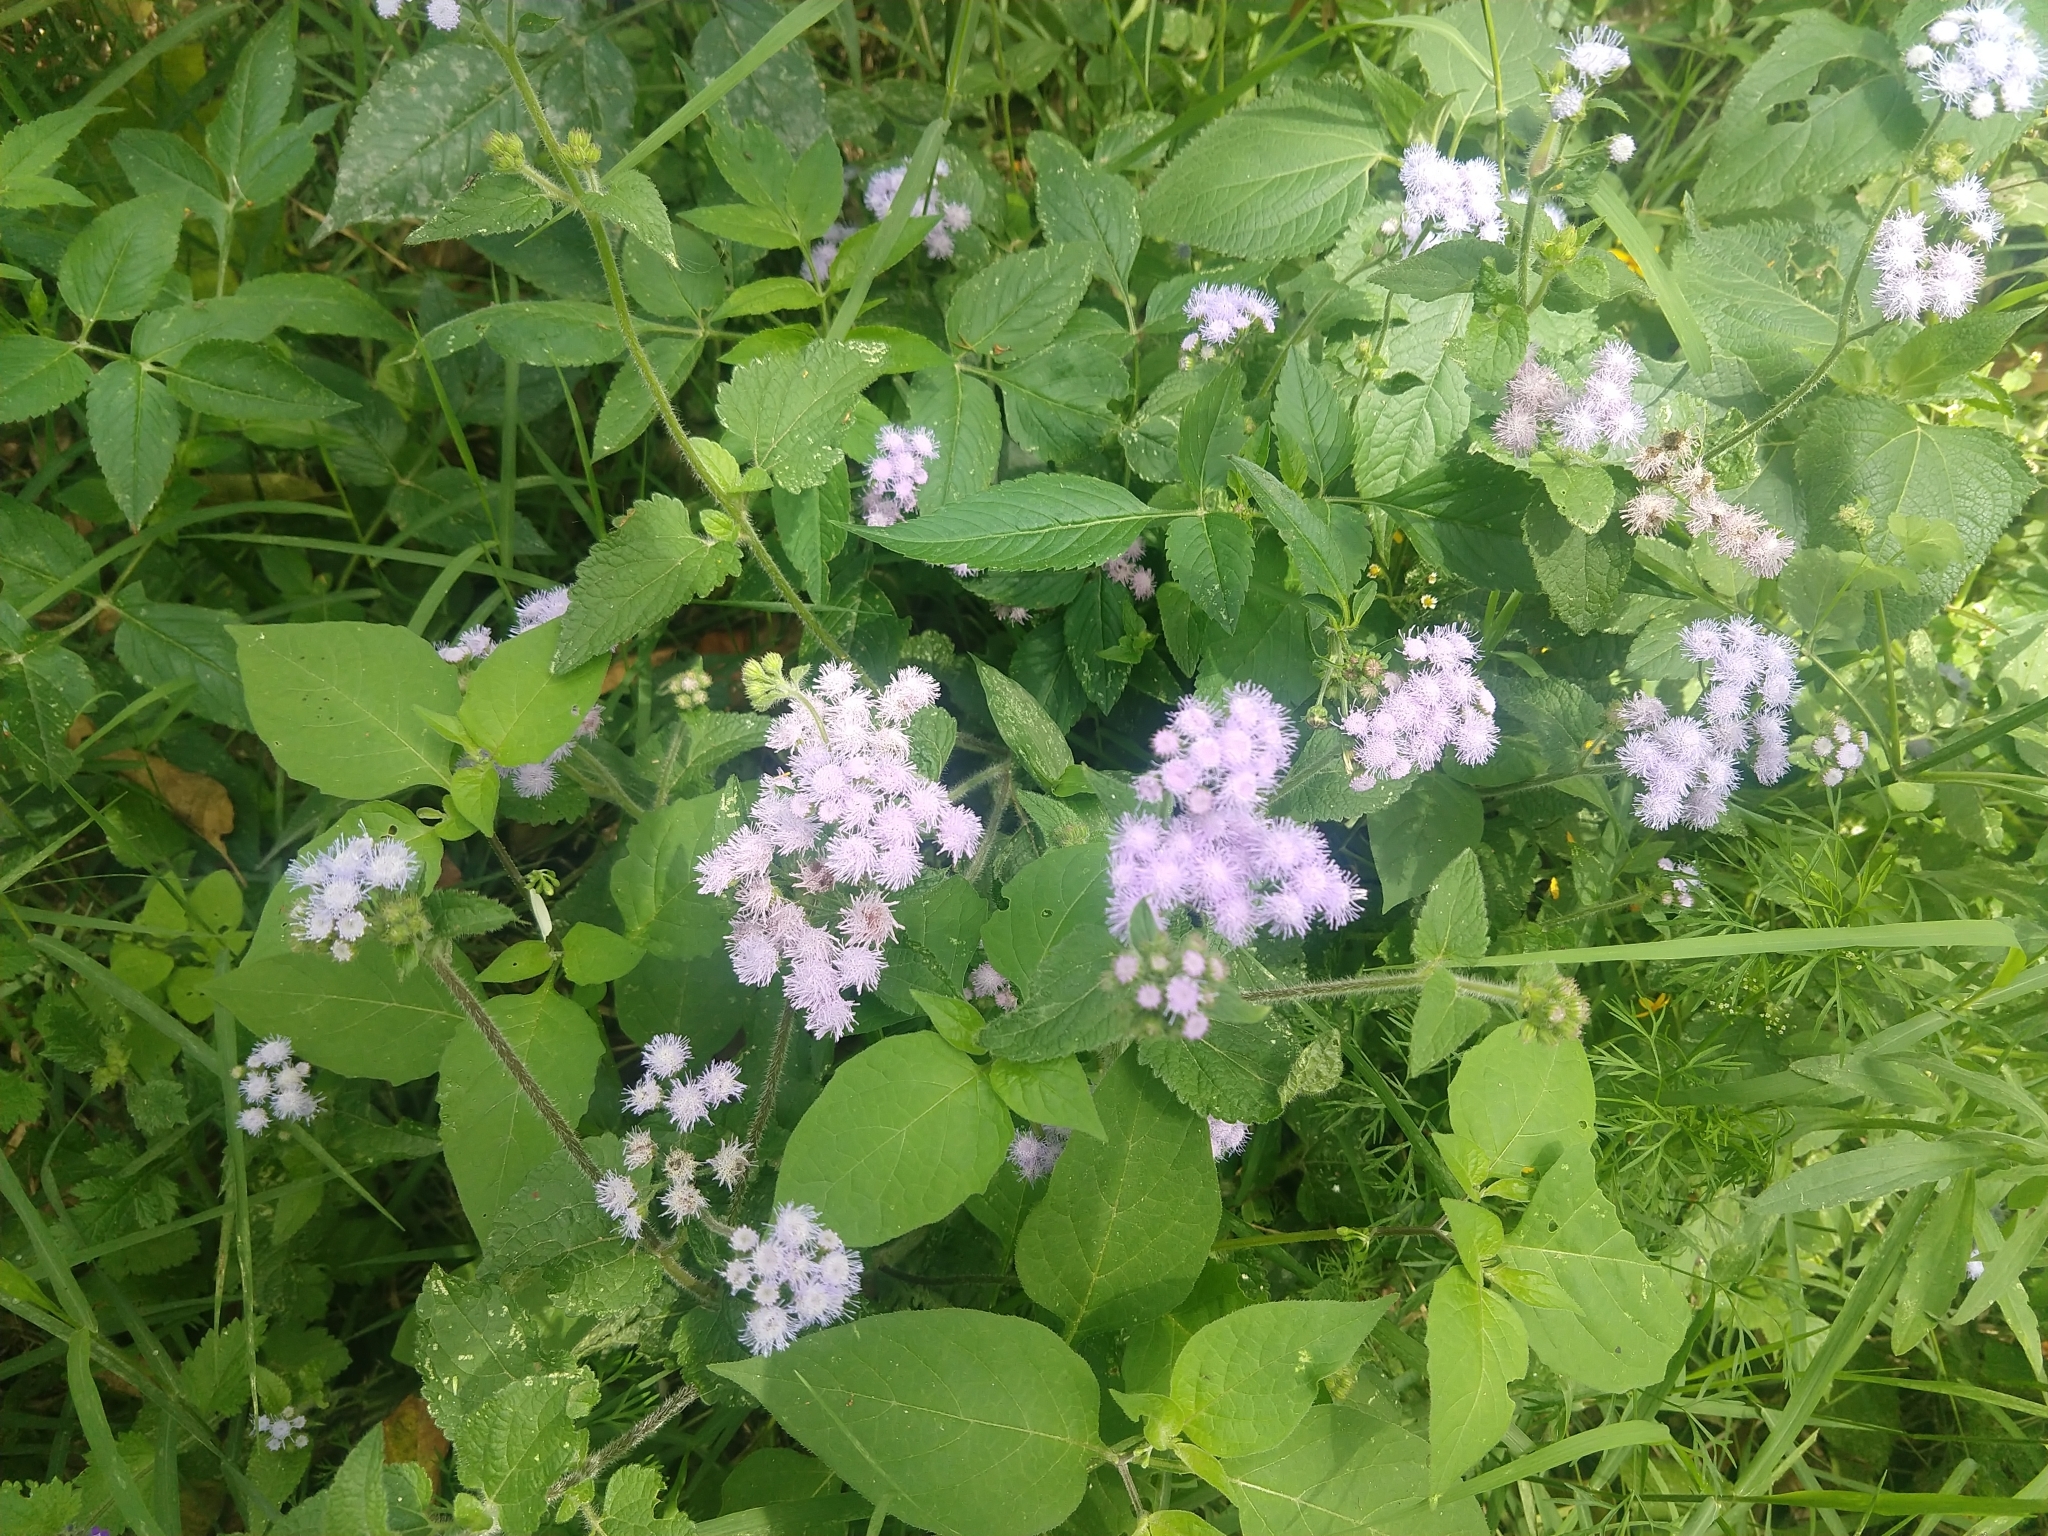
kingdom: Plantae
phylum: Tracheophyta
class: Magnoliopsida
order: Asterales
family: Asteraceae
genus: Ageratum
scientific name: Ageratum houstonianum
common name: Bluemink
